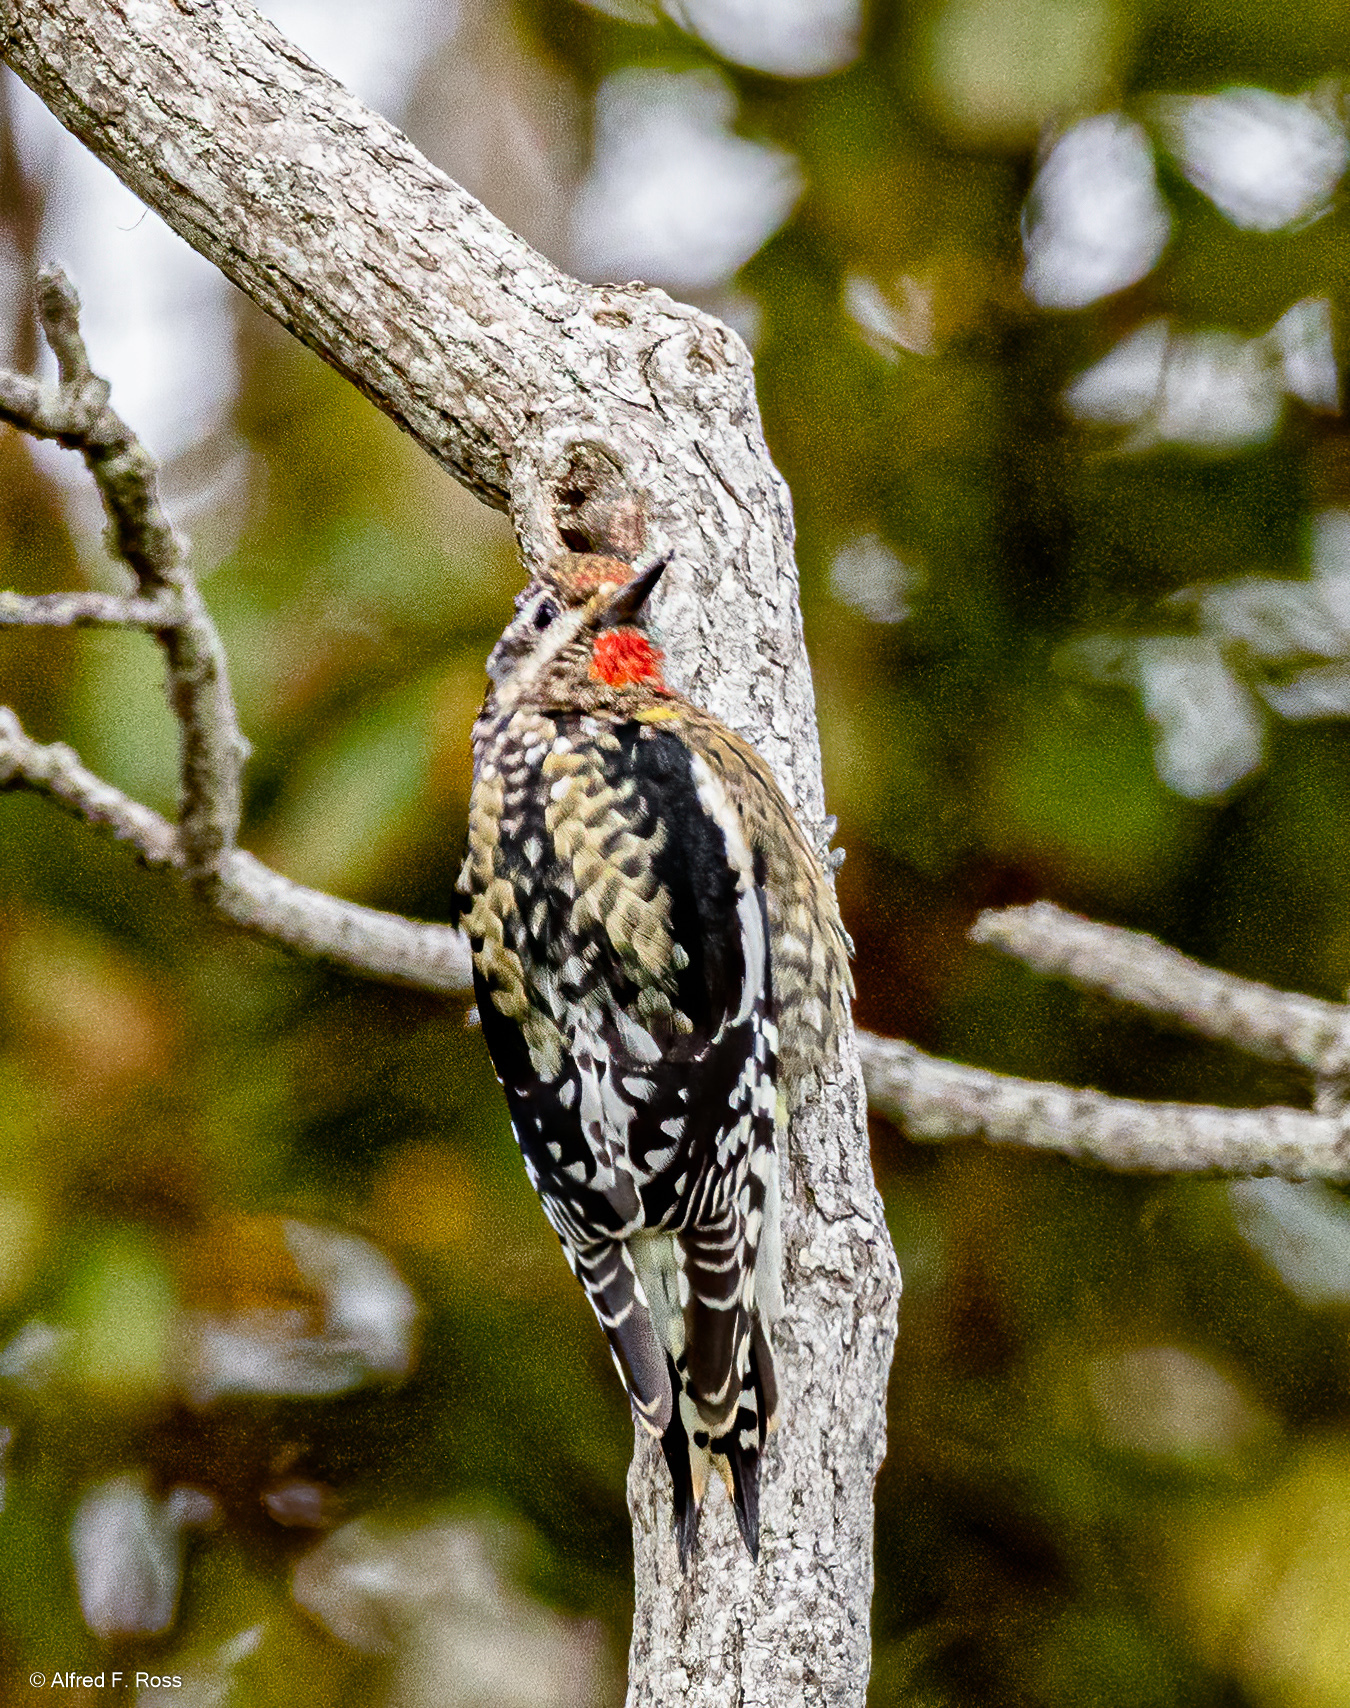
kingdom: Animalia
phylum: Chordata
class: Aves
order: Piciformes
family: Picidae
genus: Sphyrapicus
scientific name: Sphyrapicus varius
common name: Yellow-bellied sapsucker
